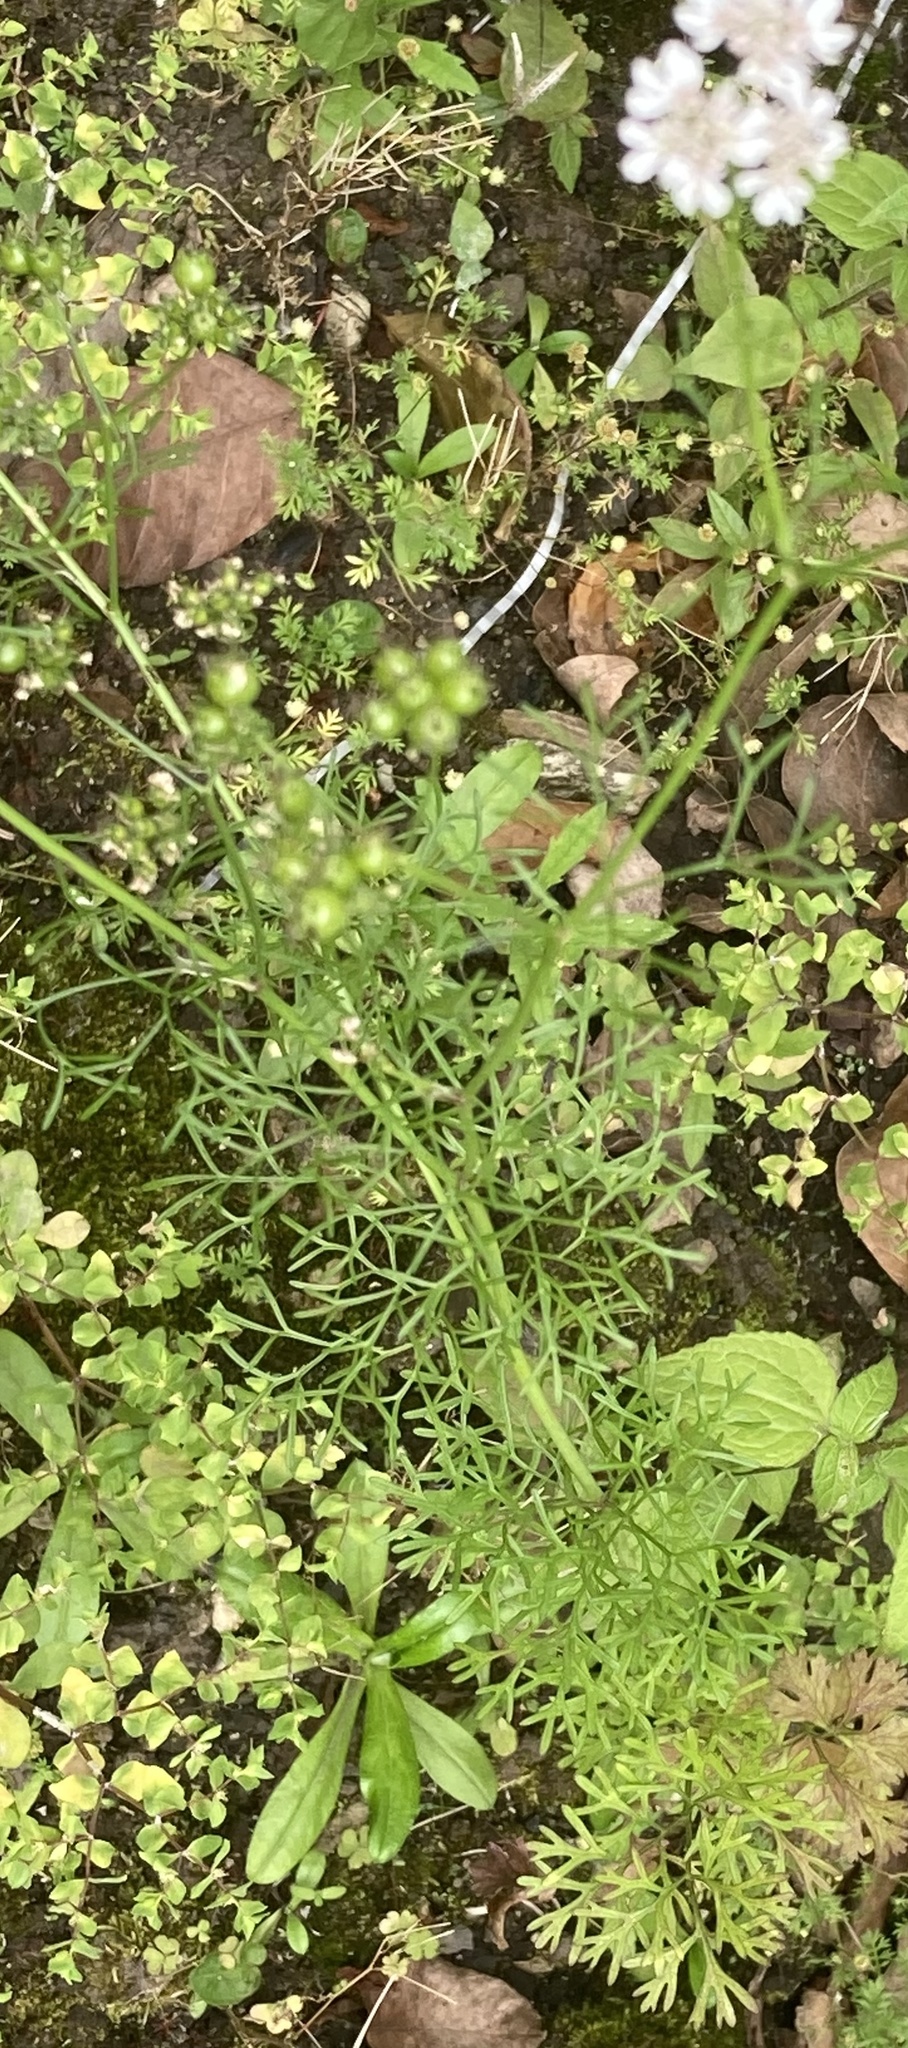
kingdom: Plantae
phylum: Tracheophyta
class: Magnoliopsida
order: Apiales
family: Apiaceae
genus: Coriandrum
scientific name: Coriandrum sativum
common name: Coriander
